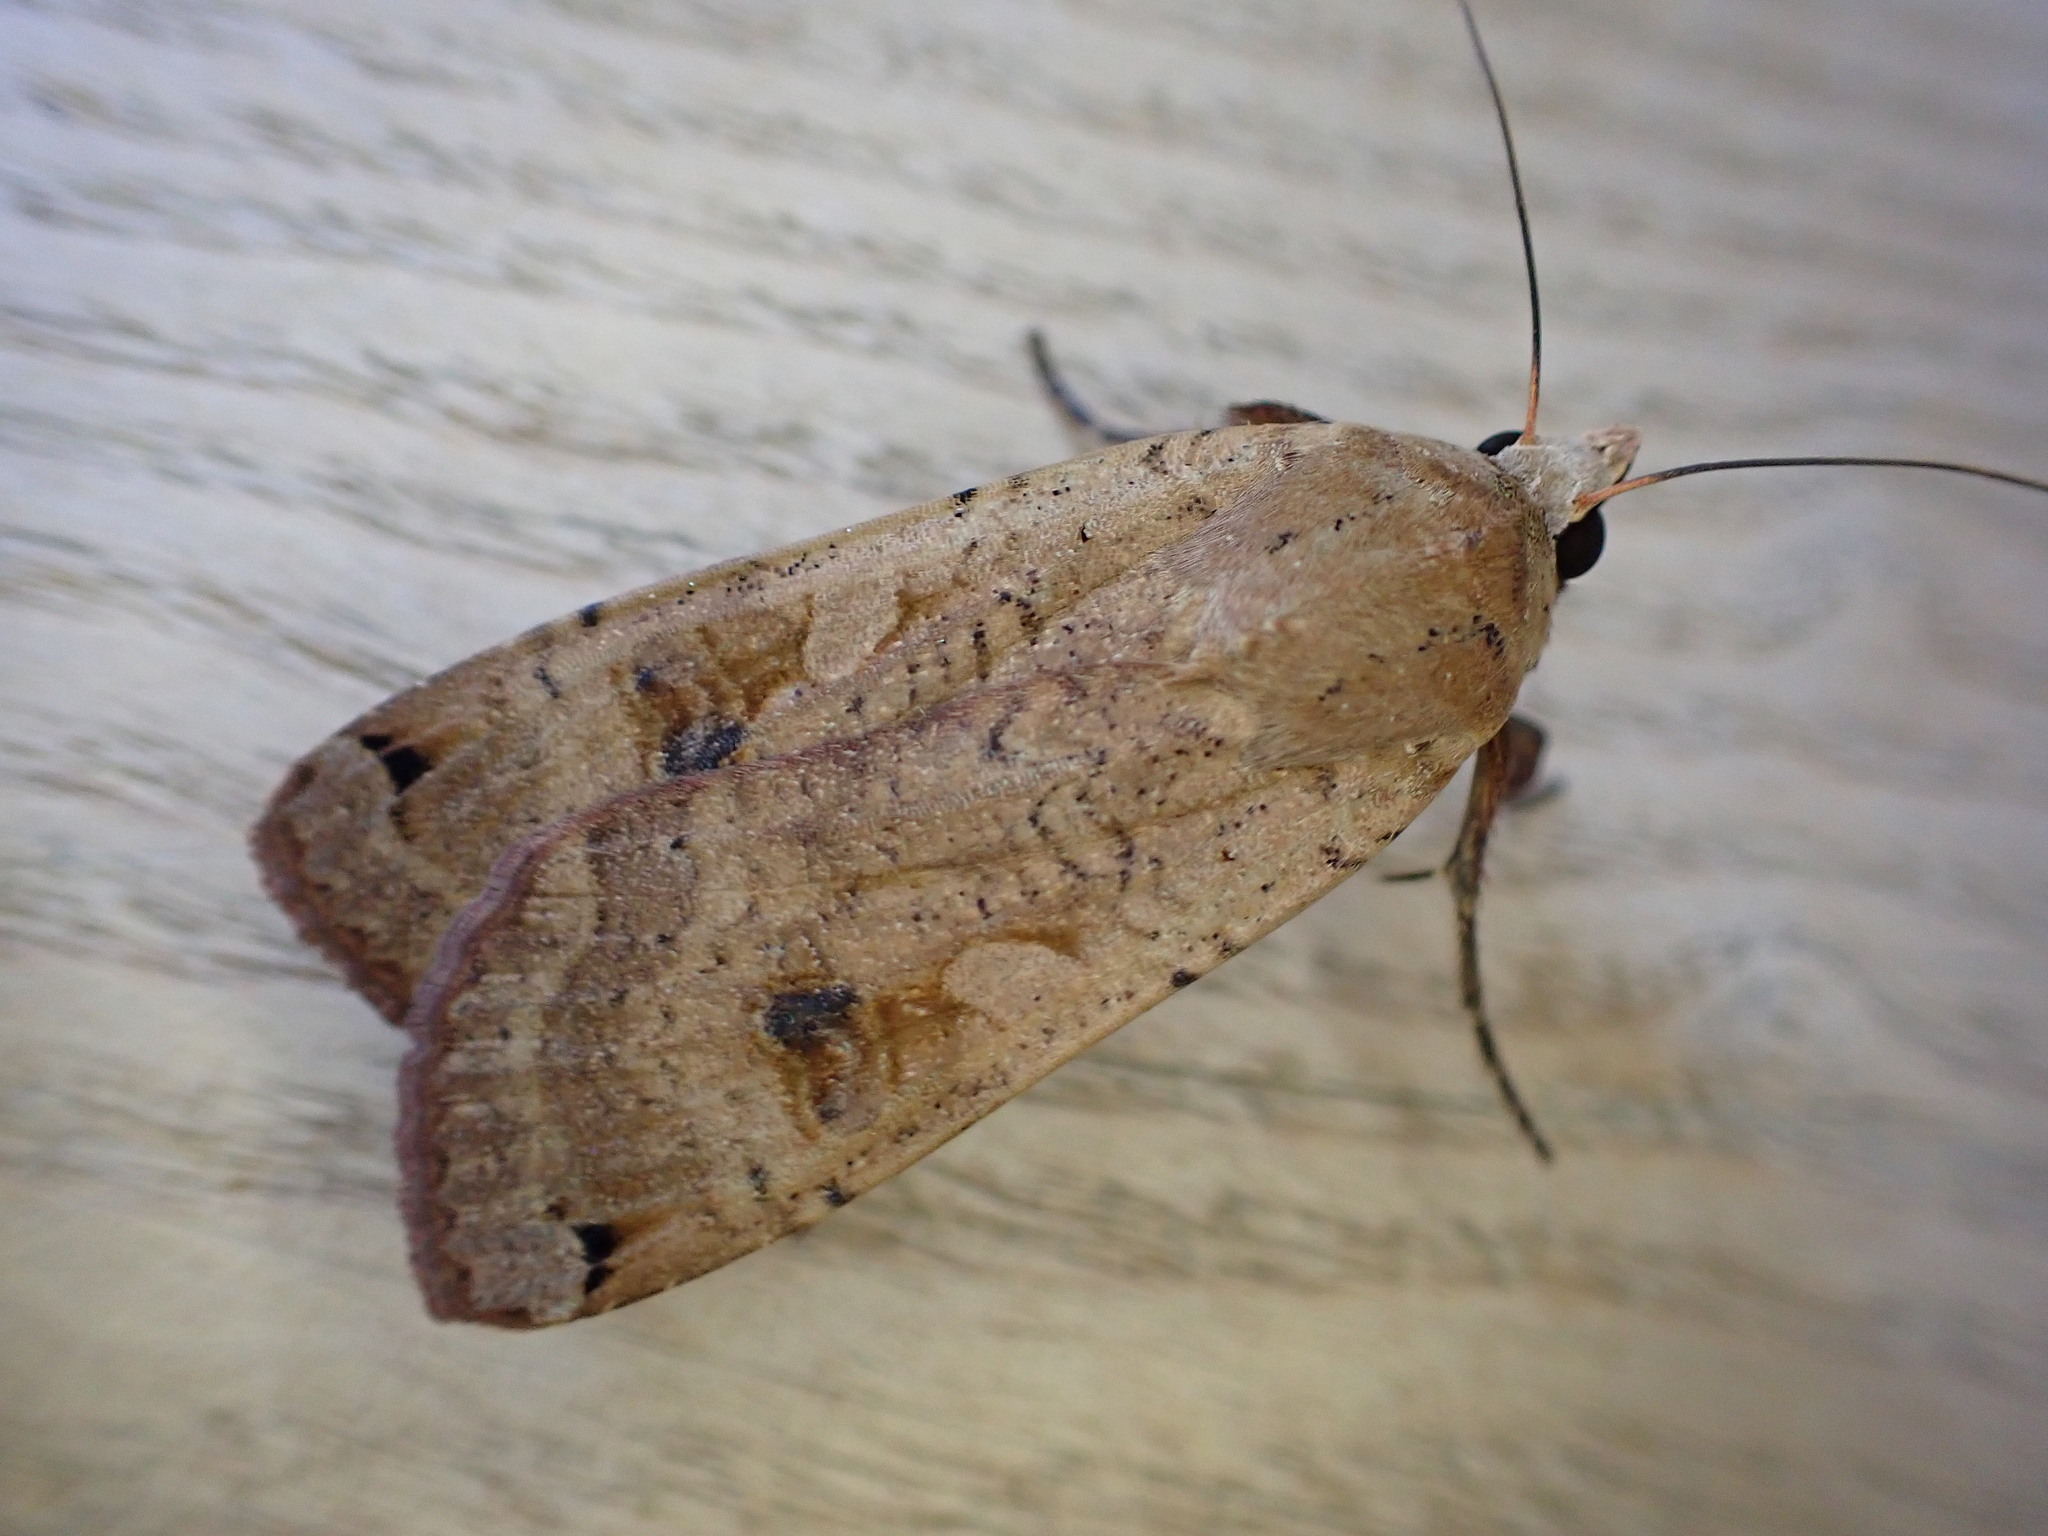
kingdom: Animalia
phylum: Arthropoda
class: Insecta
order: Lepidoptera
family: Noctuidae
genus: Noctua
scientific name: Noctua pronuba
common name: Large yellow underwing
